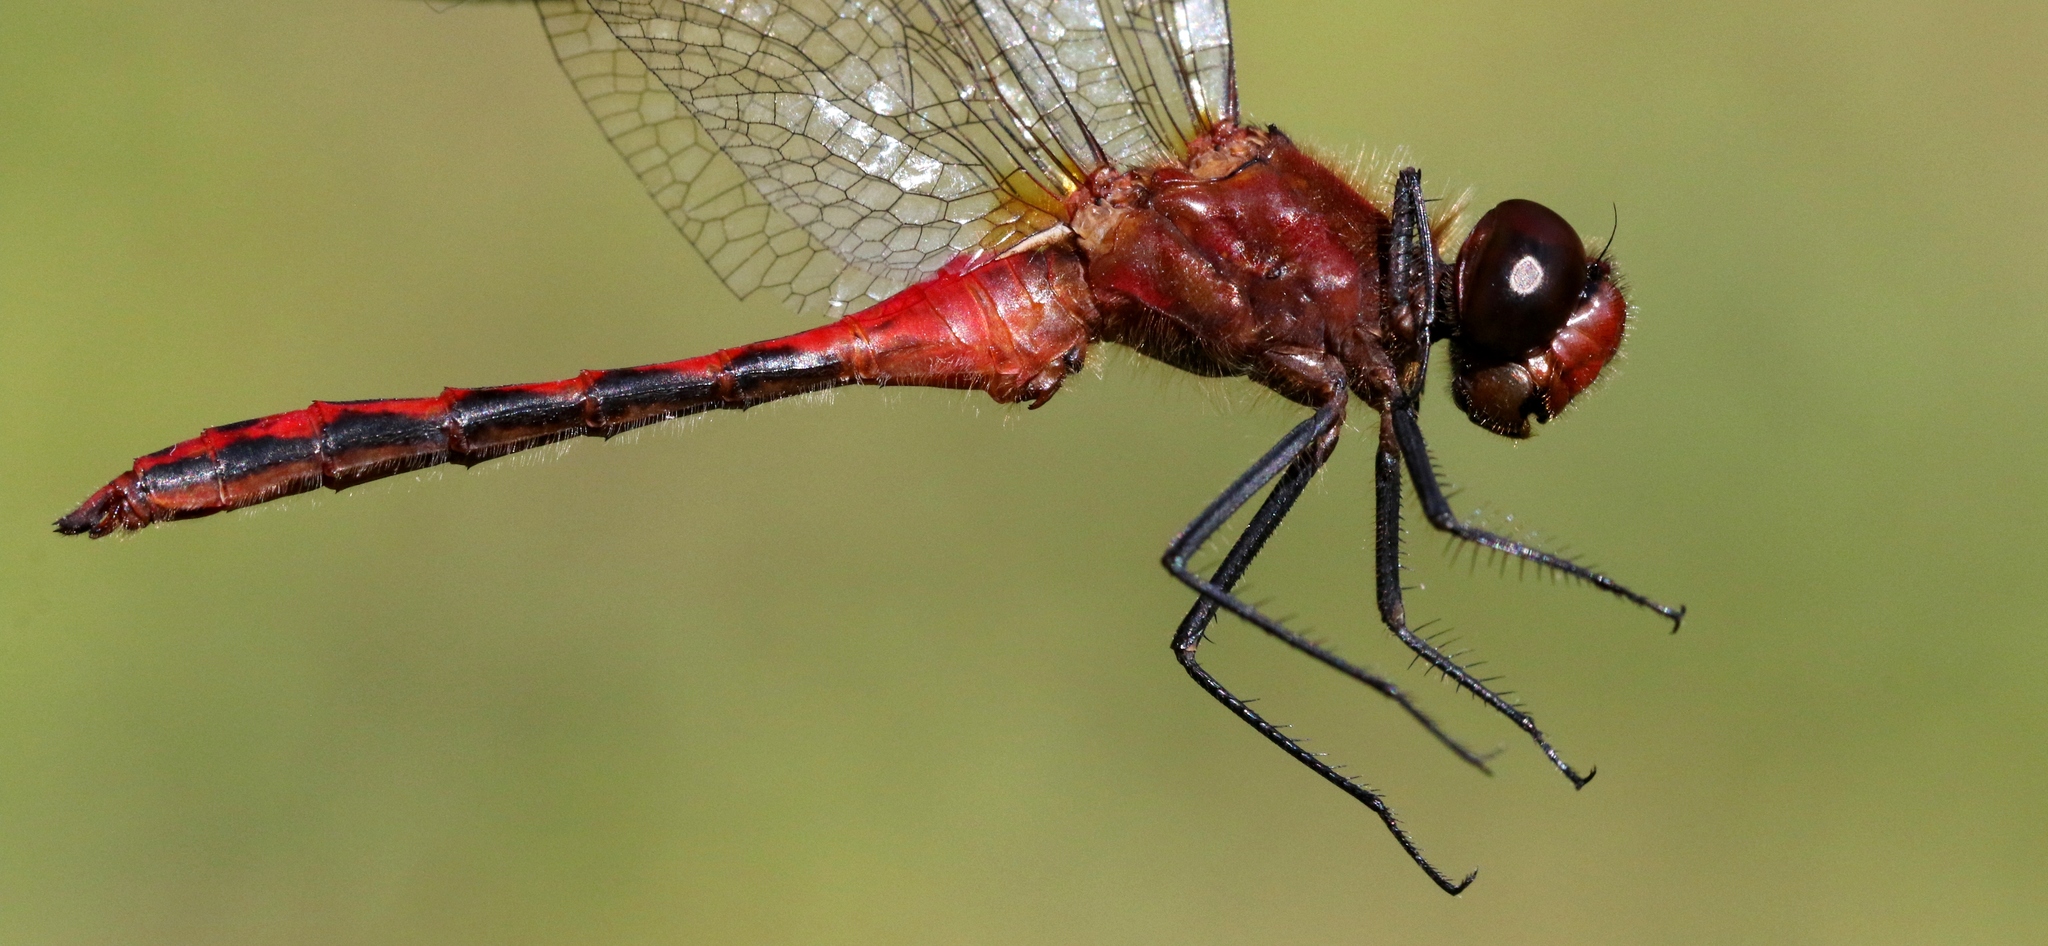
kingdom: Animalia
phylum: Arthropoda
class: Insecta
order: Odonata
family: Libellulidae
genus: Sympetrum
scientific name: Sympetrum internum
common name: Cherry-faced meadowhawk
